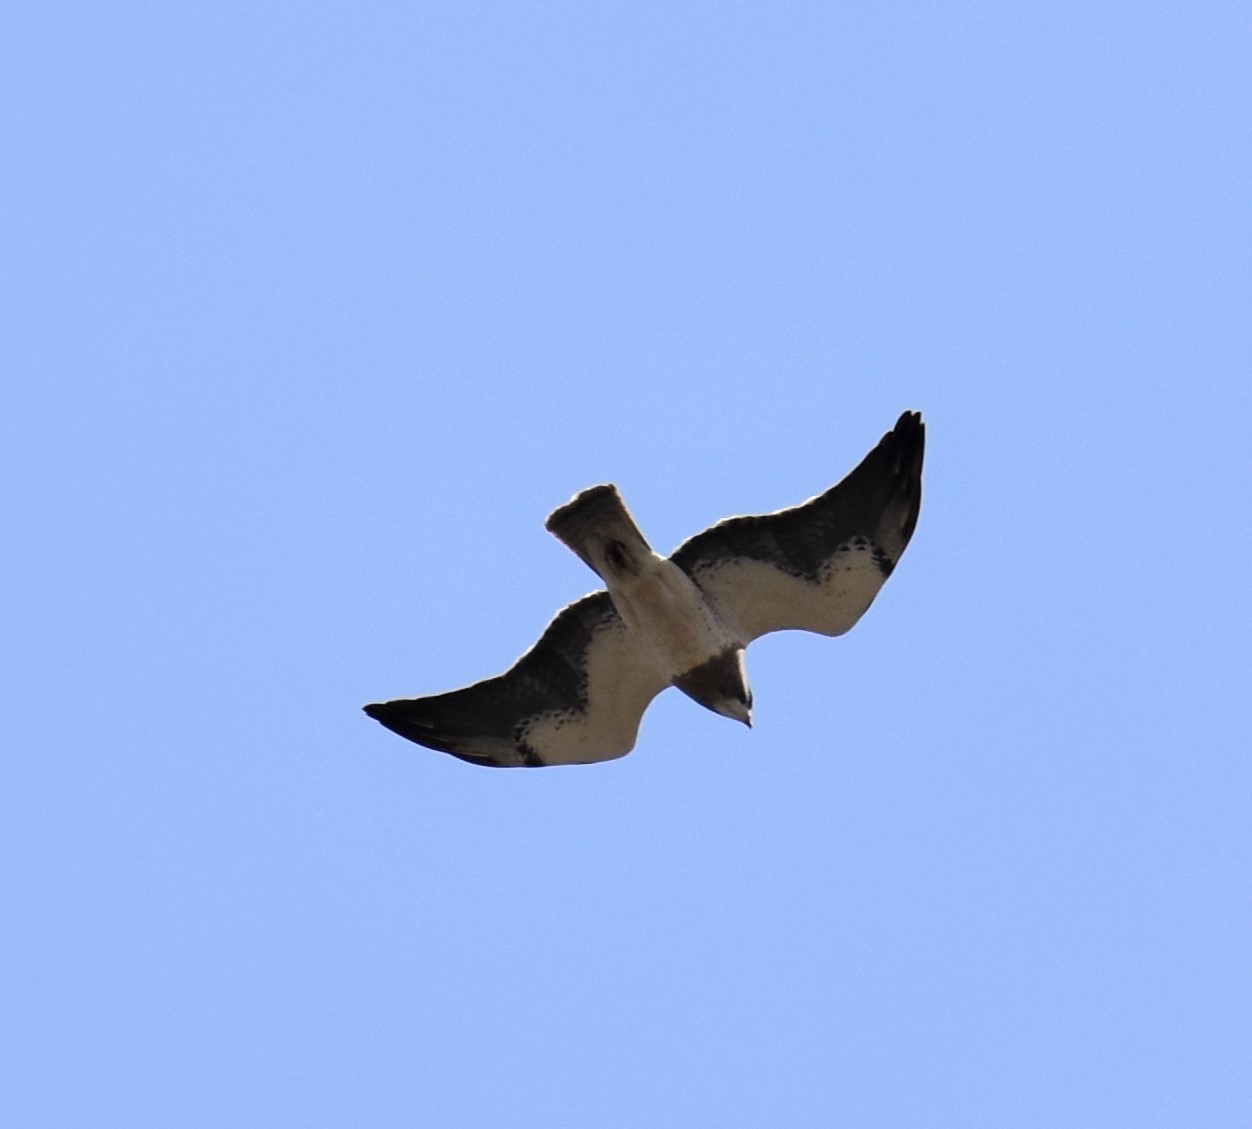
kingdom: Animalia
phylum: Chordata
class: Aves
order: Accipitriformes
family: Accipitridae
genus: Buteo
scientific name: Buteo swainsoni
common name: Swainson's hawk
